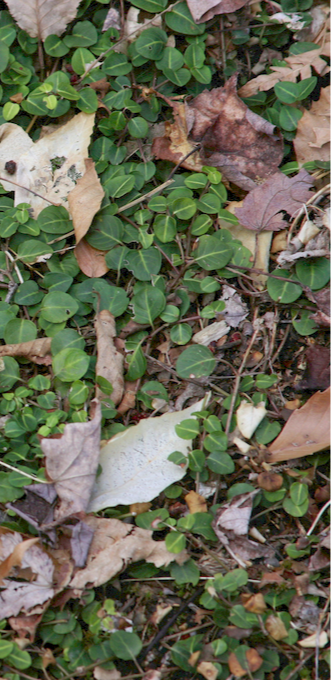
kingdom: Plantae
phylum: Tracheophyta
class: Magnoliopsida
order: Gentianales
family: Rubiaceae
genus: Mitchella
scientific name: Mitchella repens
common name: Partridge-berry
